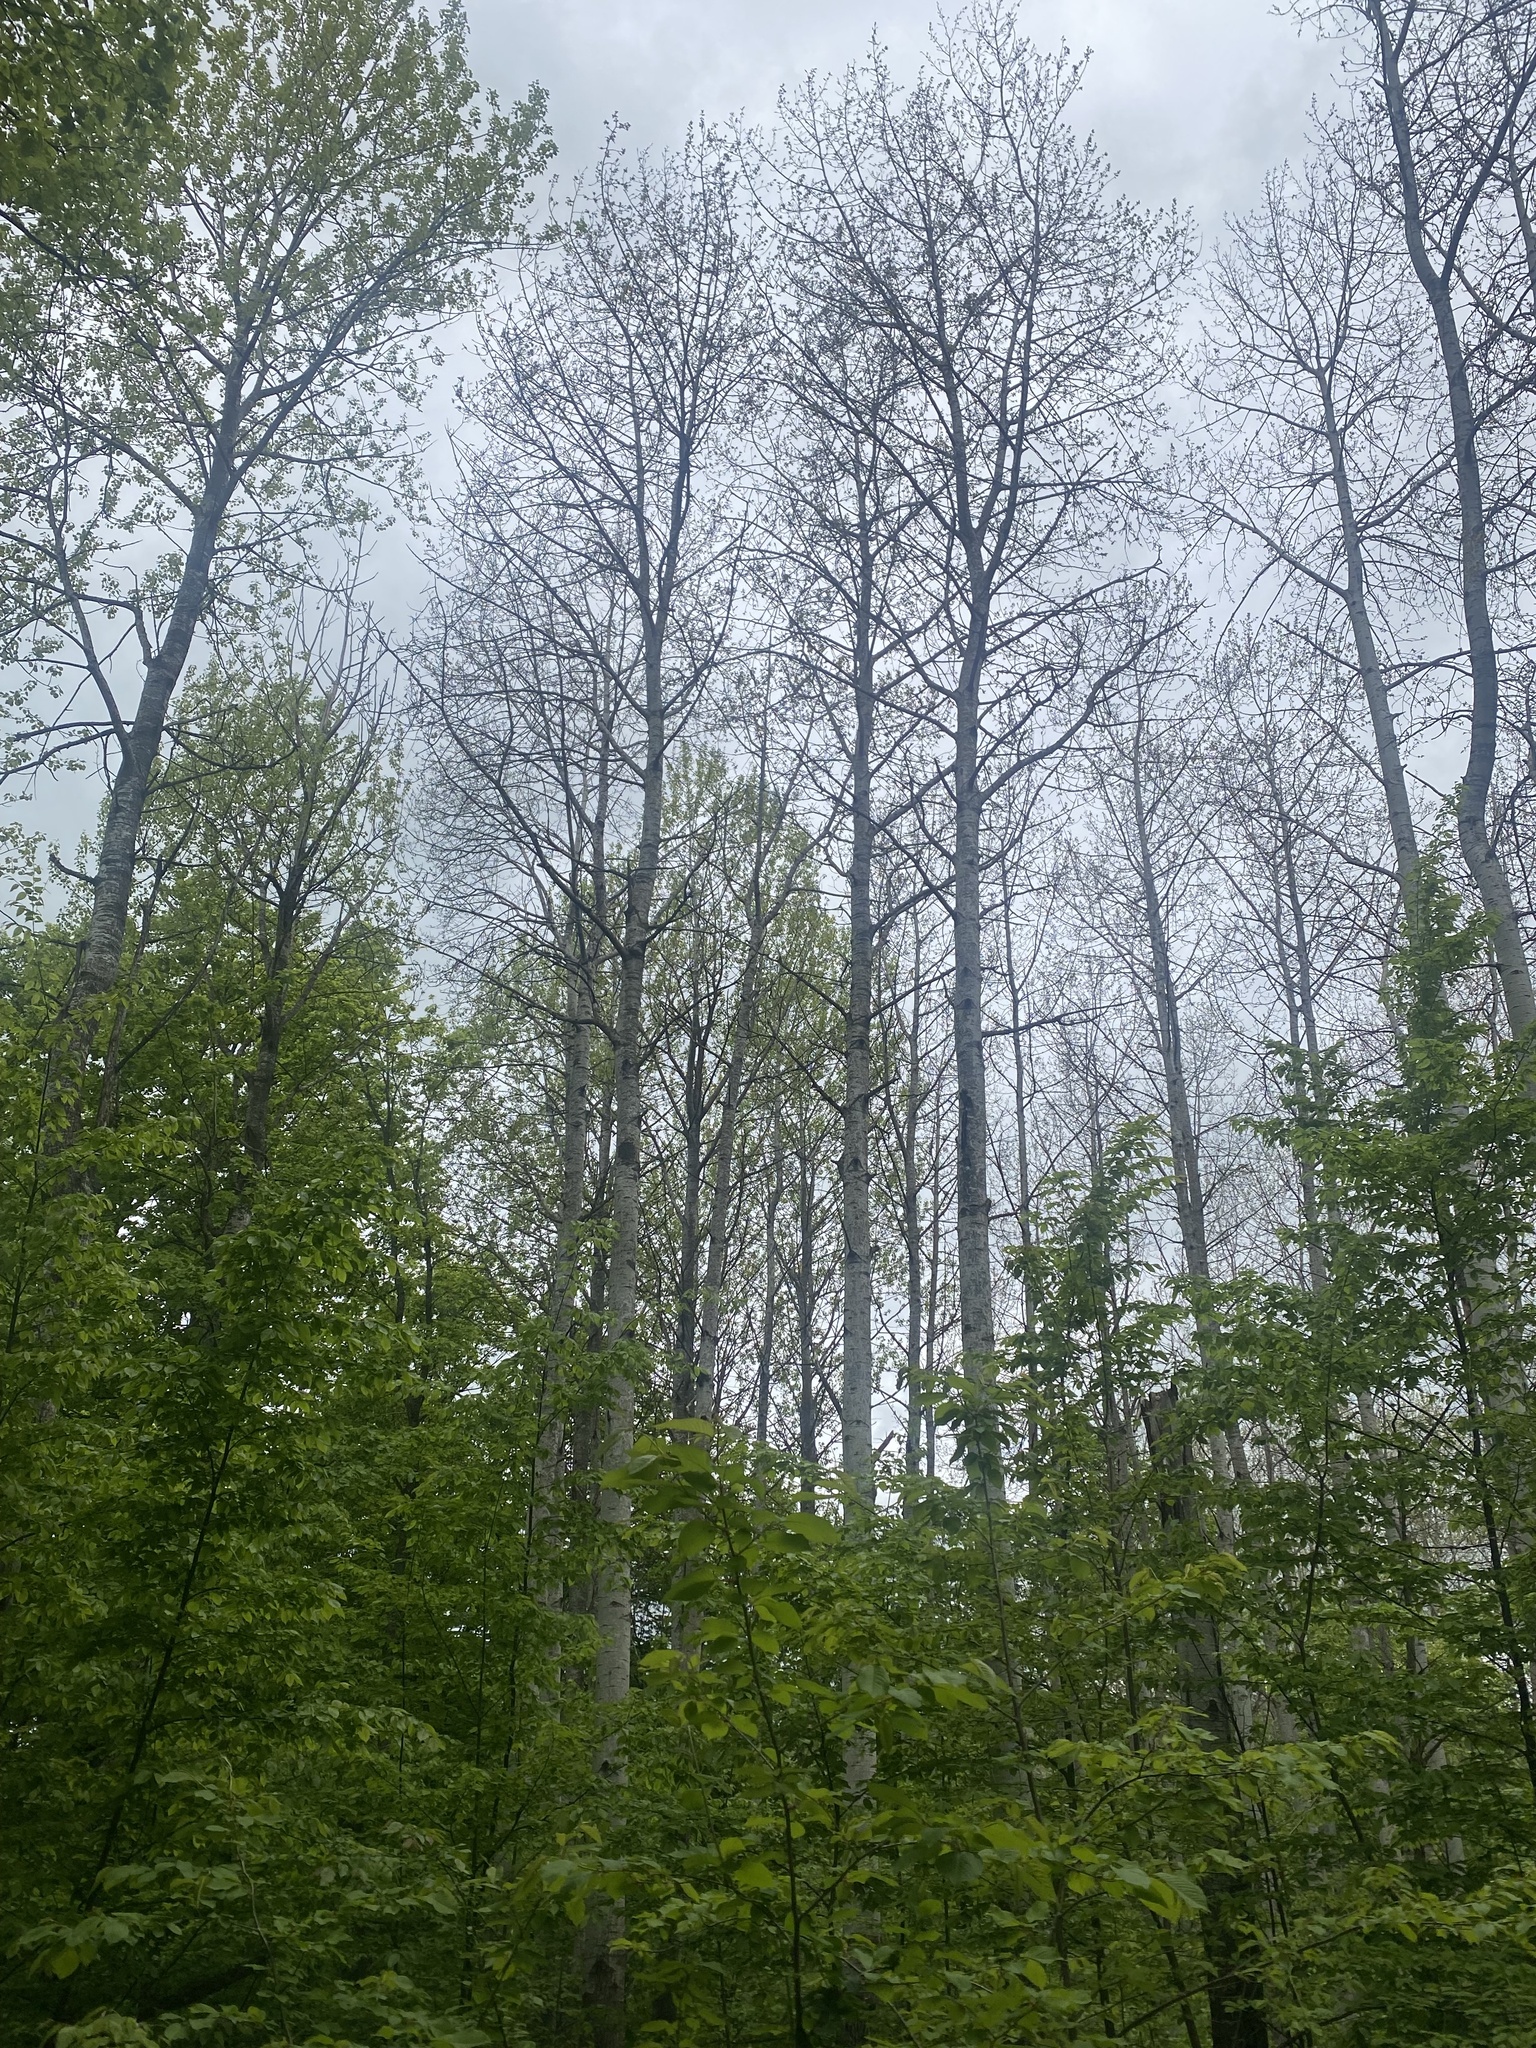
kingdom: Plantae
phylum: Tracheophyta
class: Magnoliopsida
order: Malpighiales
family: Salicaceae
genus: Populus
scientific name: Populus tremula
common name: European aspen
